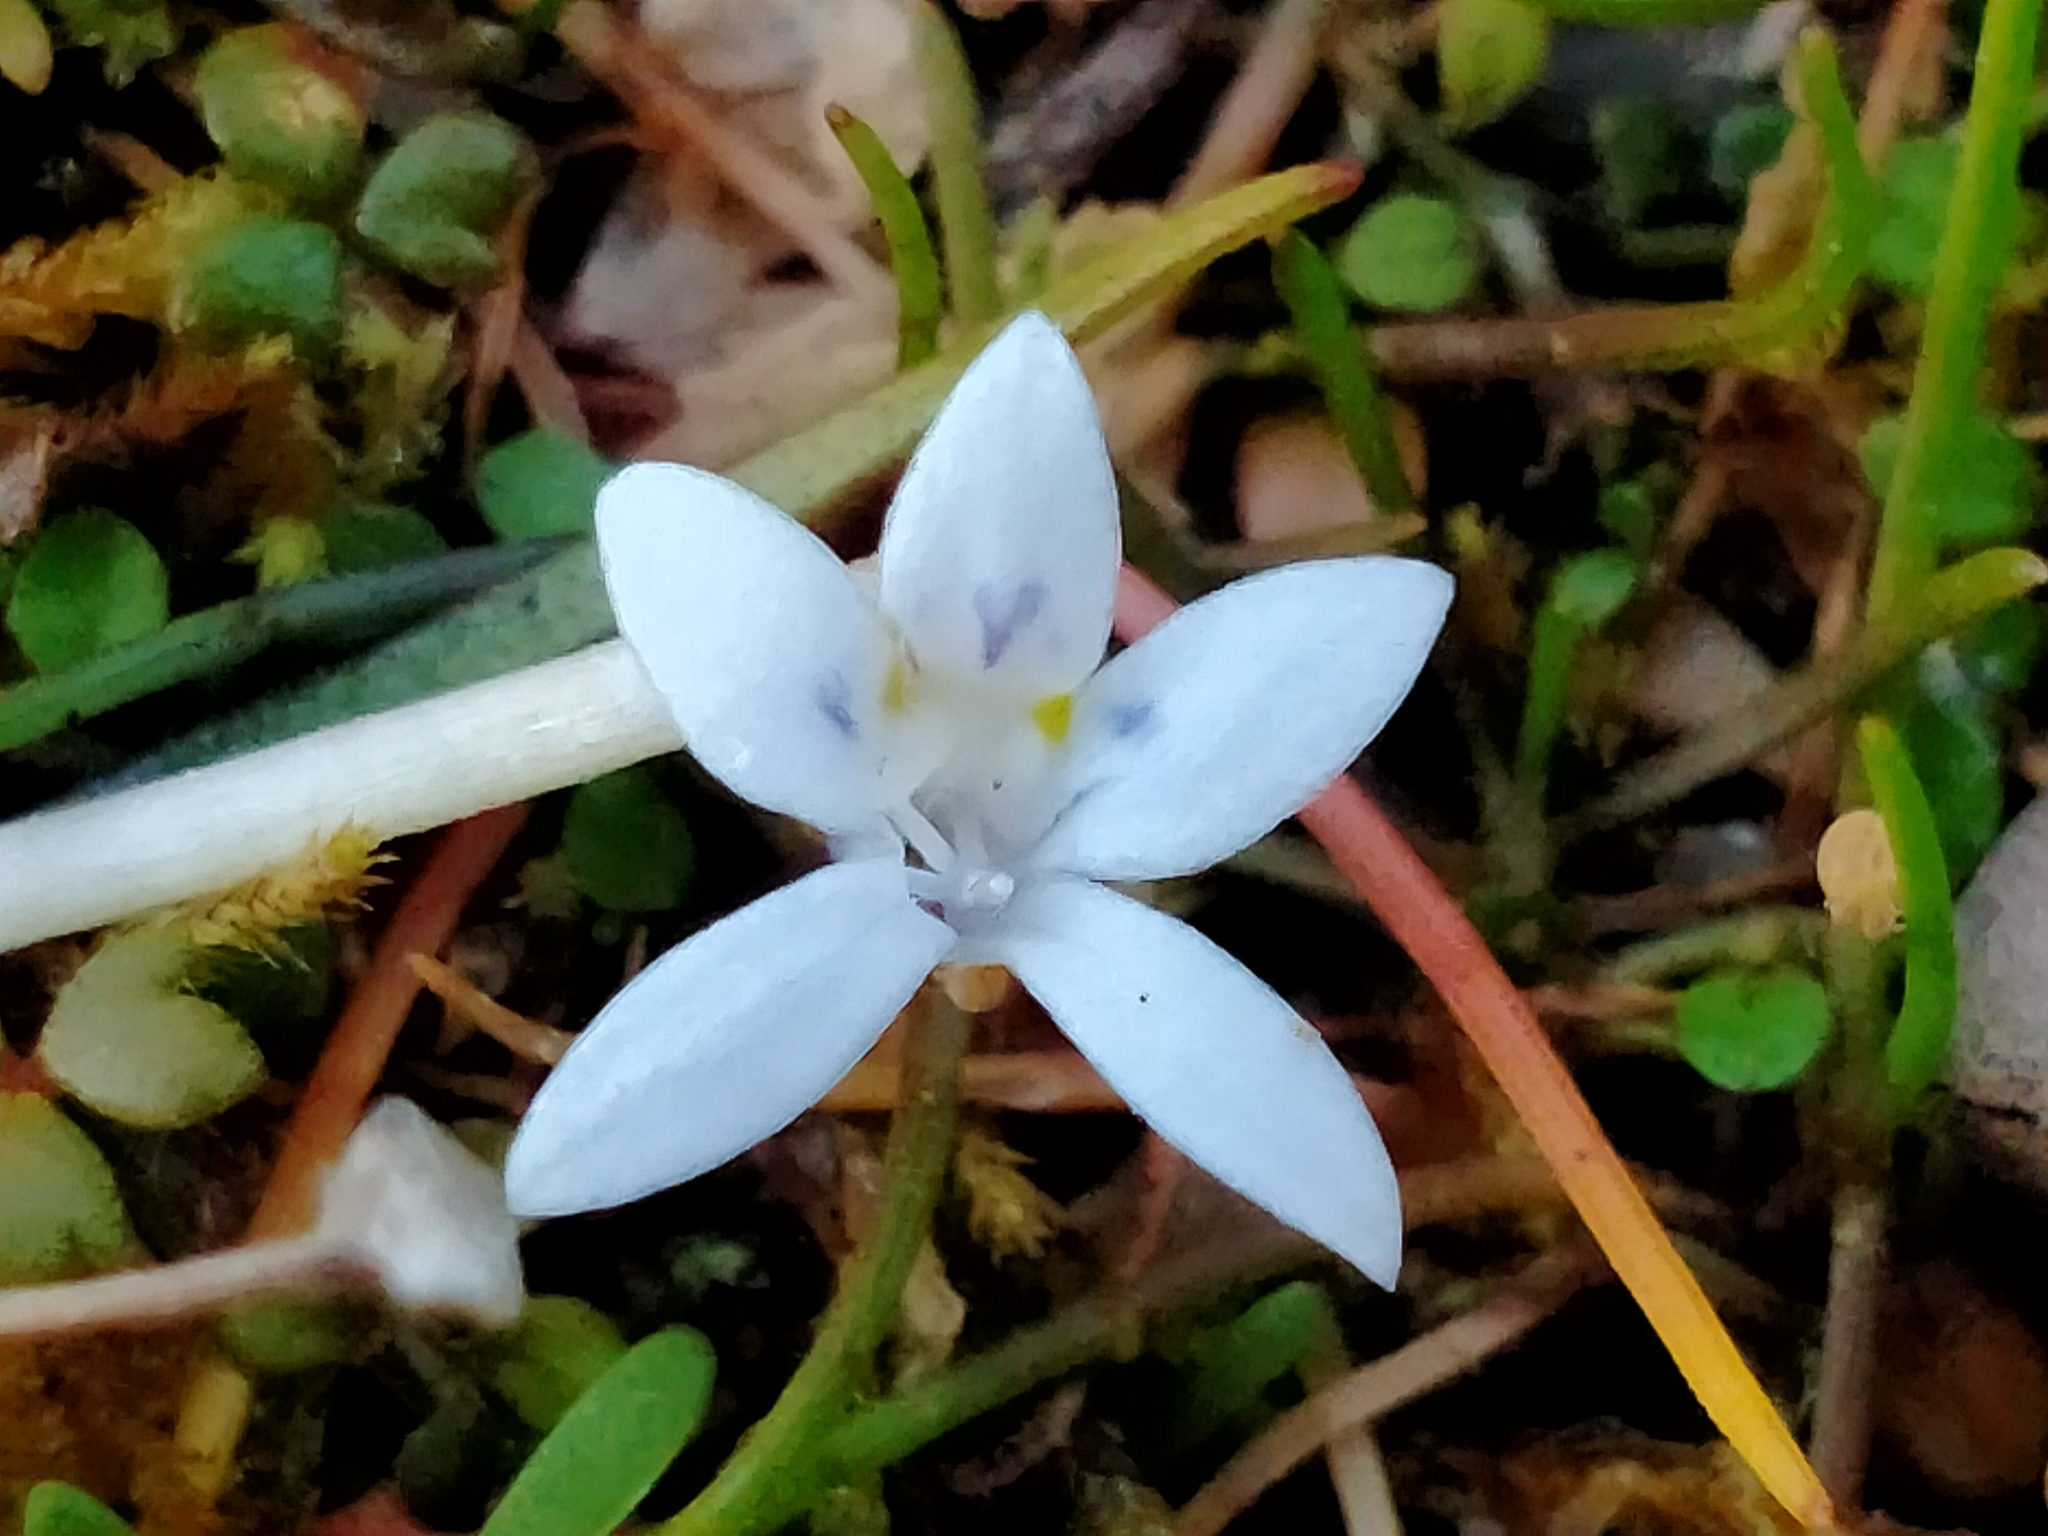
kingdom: Plantae
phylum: Tracheophyta
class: Magnoliopsida
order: Asterales
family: Campanulaceae
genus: Isotoma
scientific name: Isotoma rivalis
